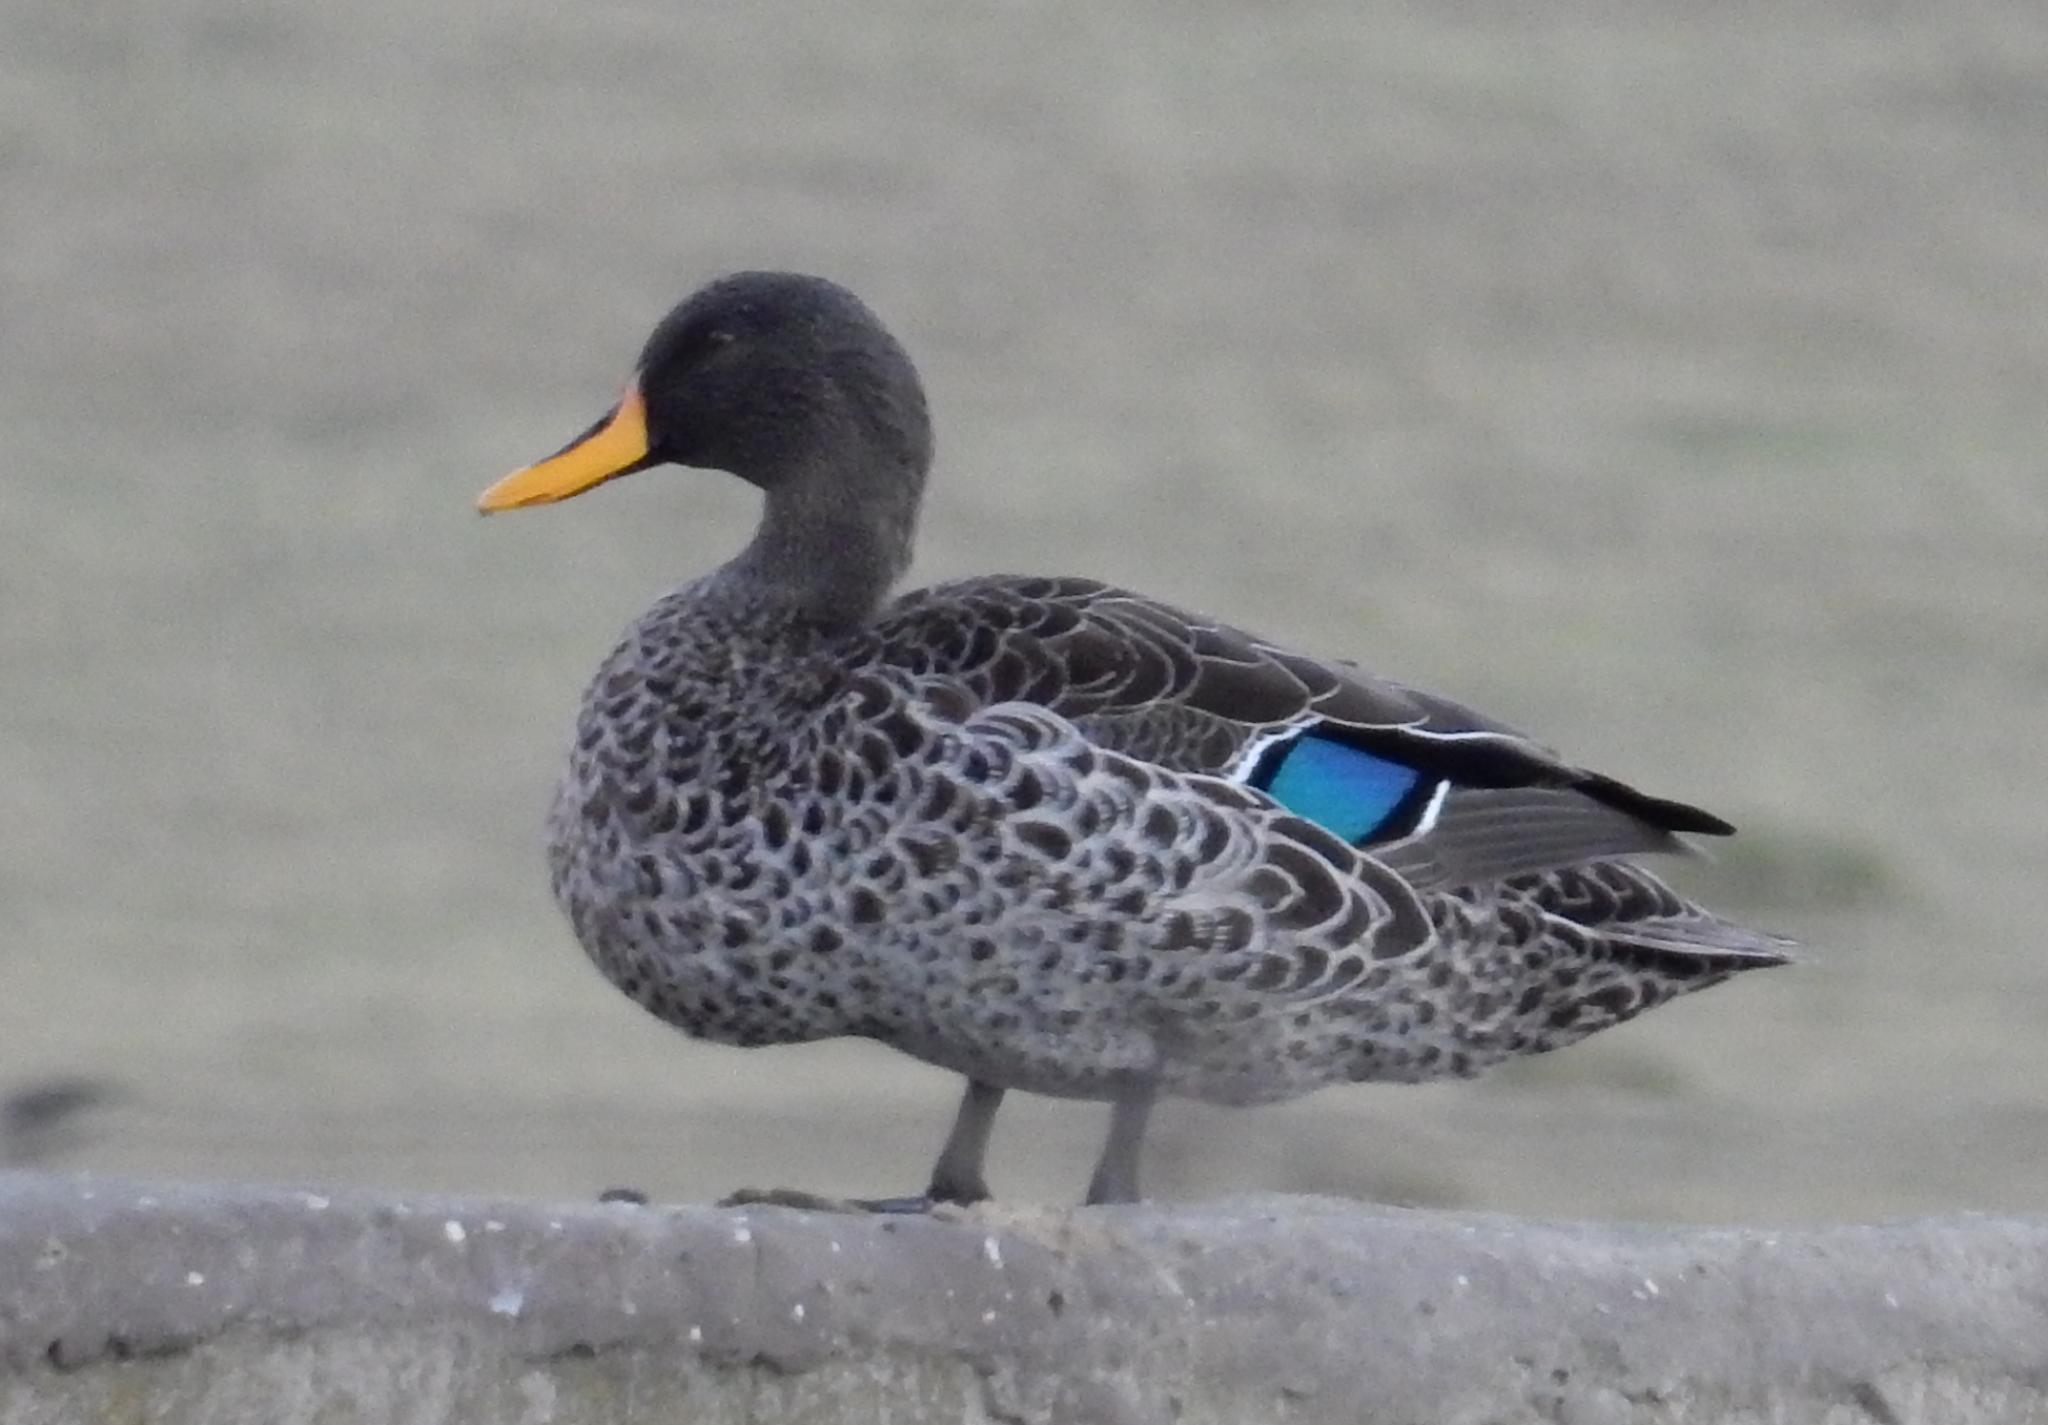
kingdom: Animalia
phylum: Chordata
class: Aves
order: Anseriformes
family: Anatidae
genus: Anas
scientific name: Anas undulata
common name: Yellow-billed duck
